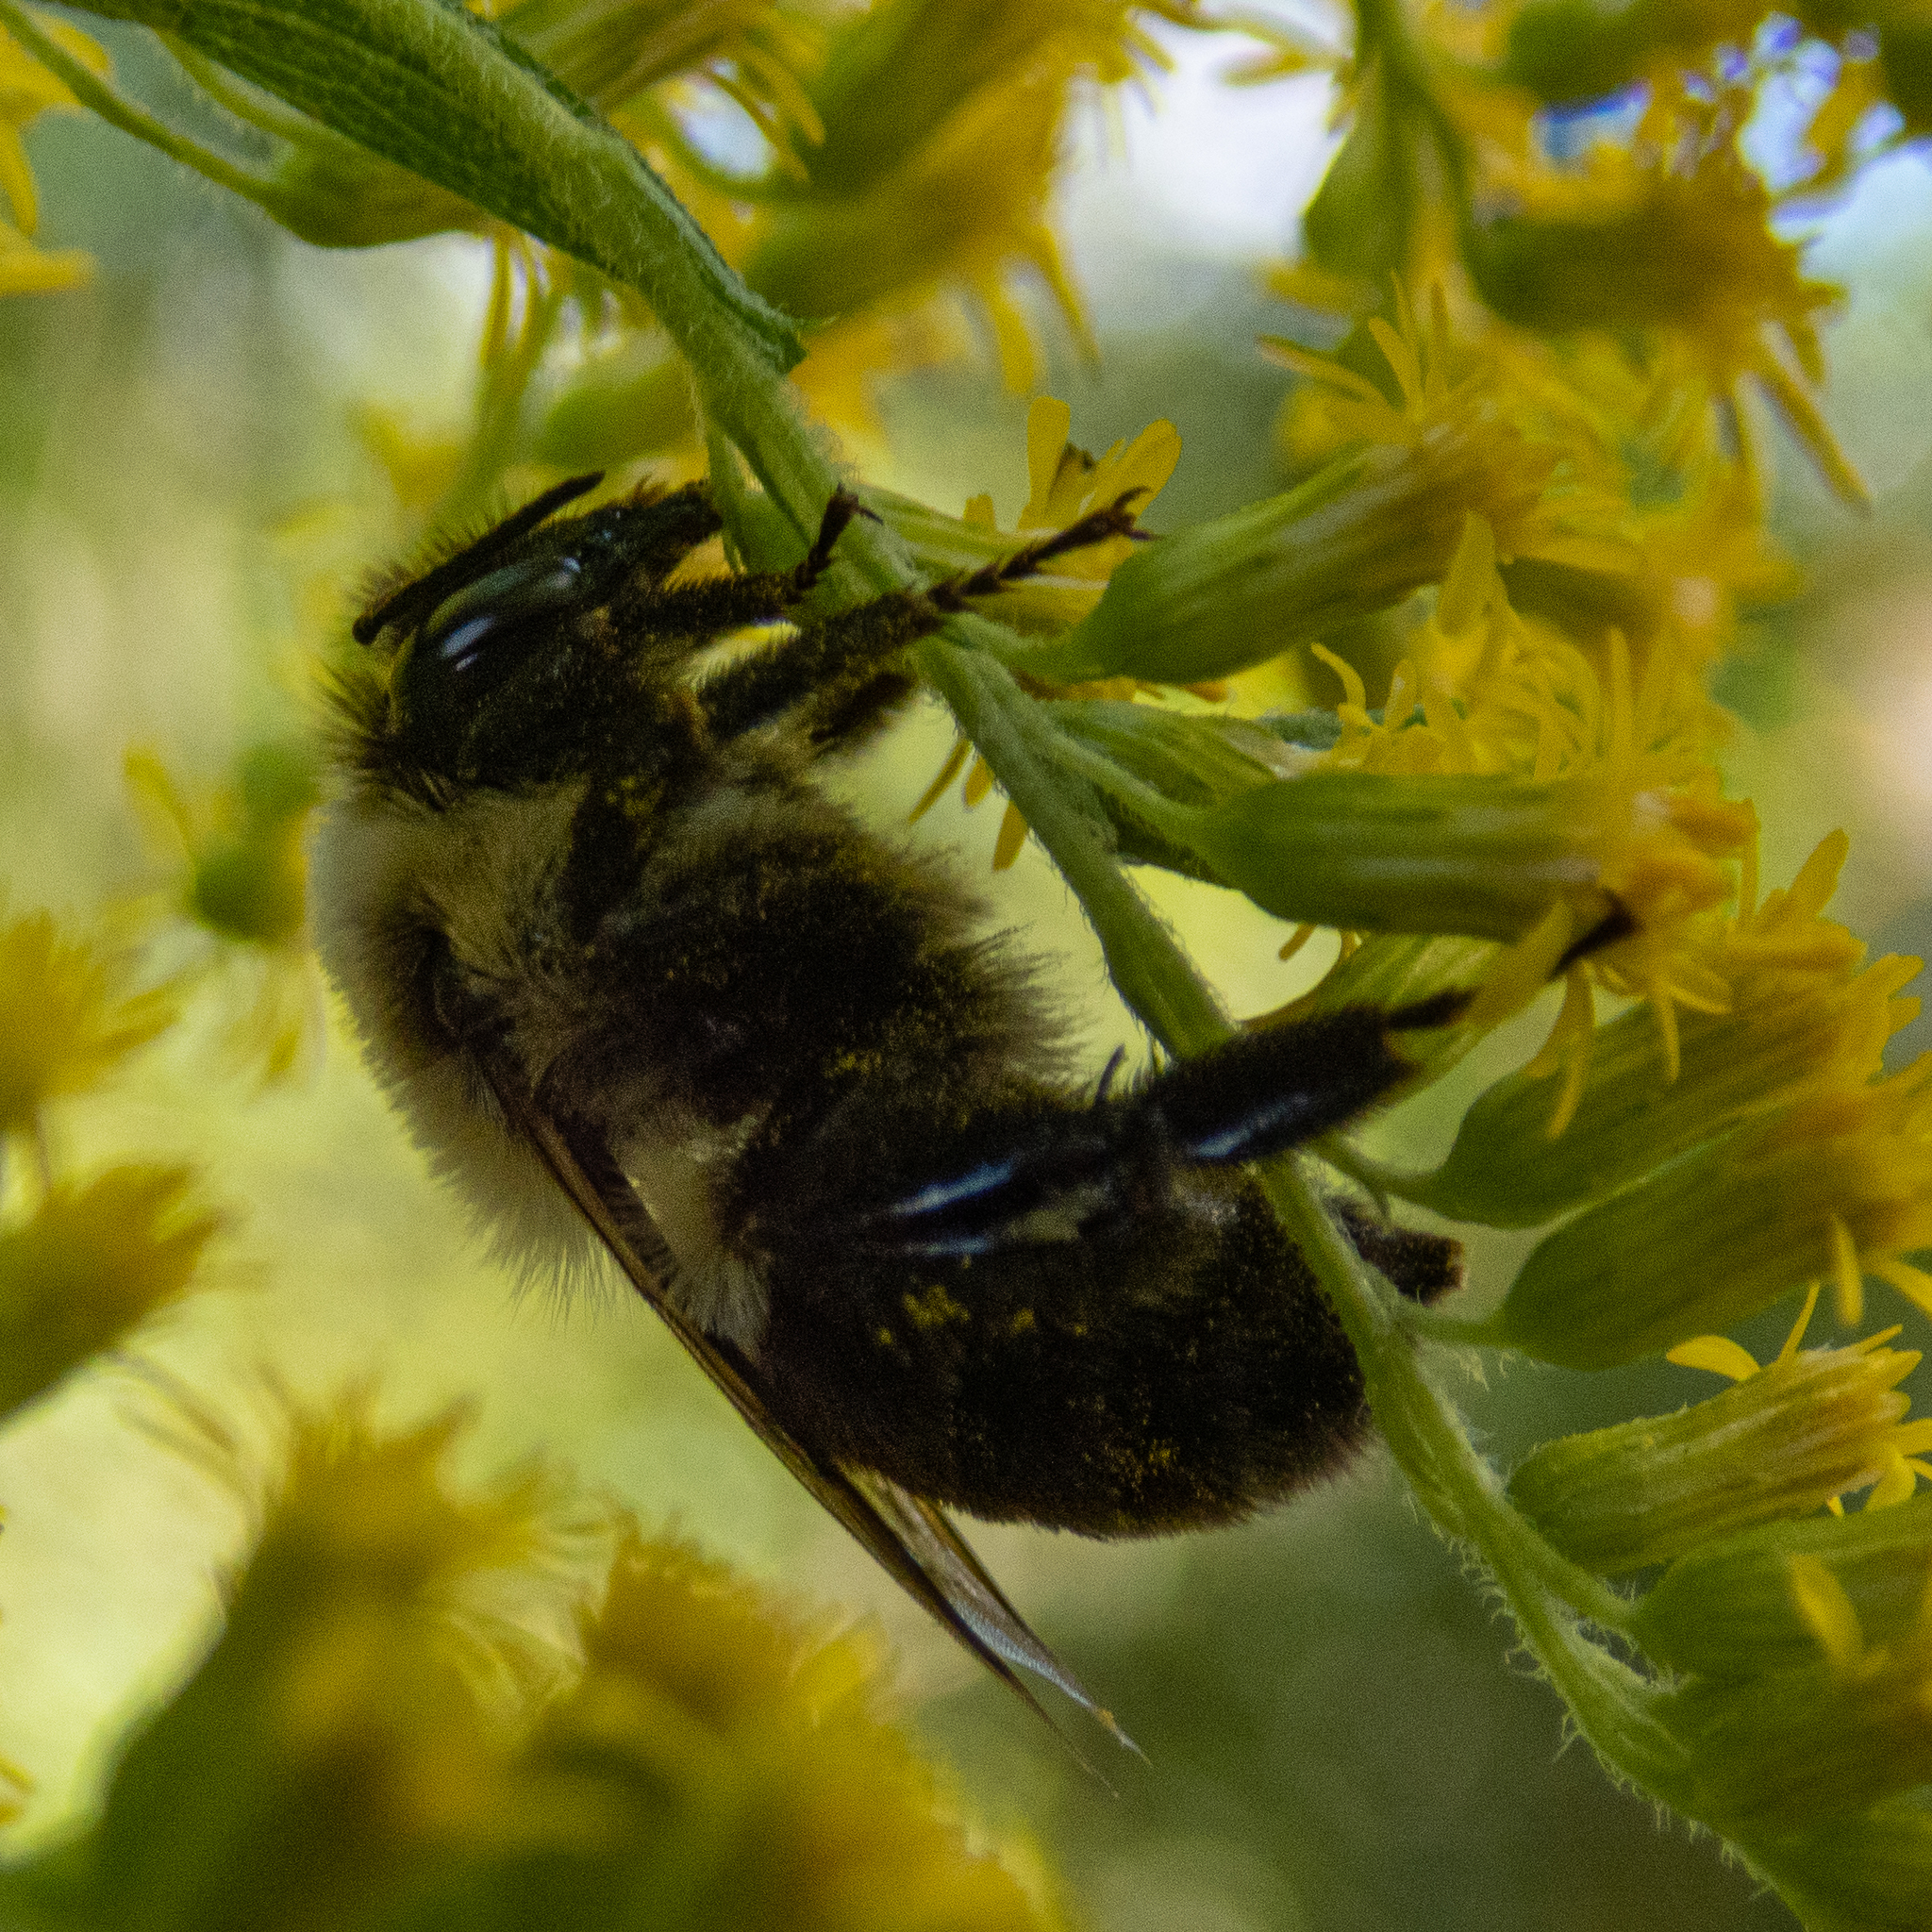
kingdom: Animalia
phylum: Arthropoda
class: Insecta
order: Hymenoptera
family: Apidae
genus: Bombus
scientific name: Bombus impatiens
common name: Common eastern bumble bee
